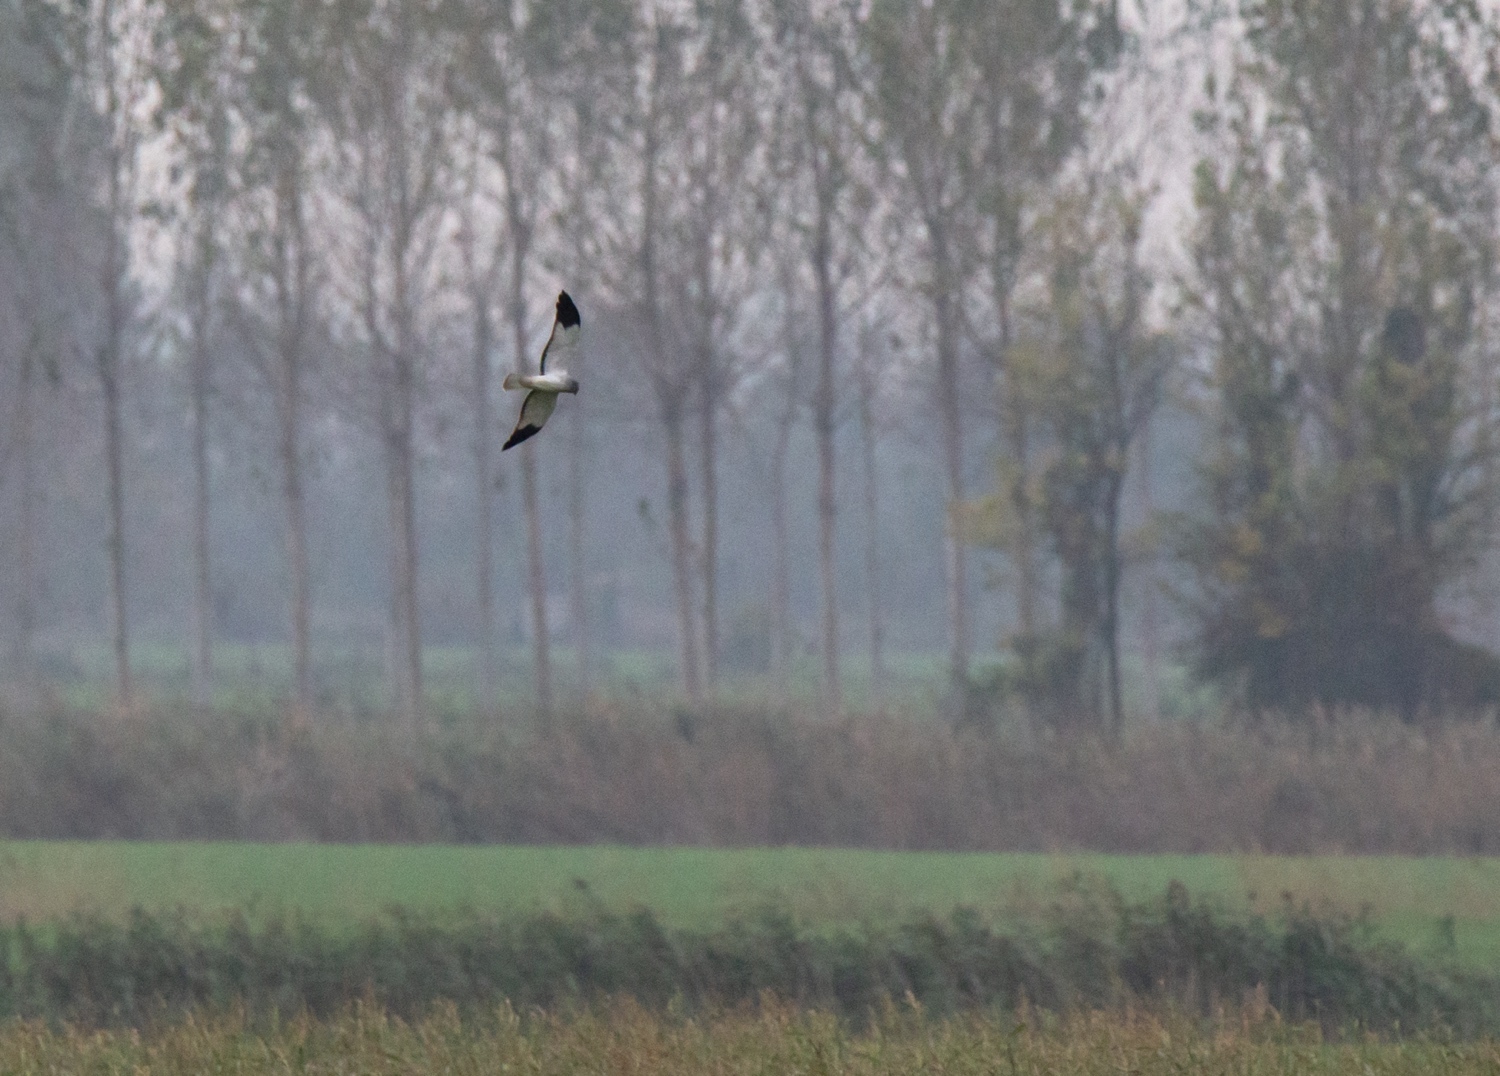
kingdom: Animalia
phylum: Chordata
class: Aves
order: Accipitriformes
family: Accipitridae
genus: Circus
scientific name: Circus cyaneus
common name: Hen harrier
